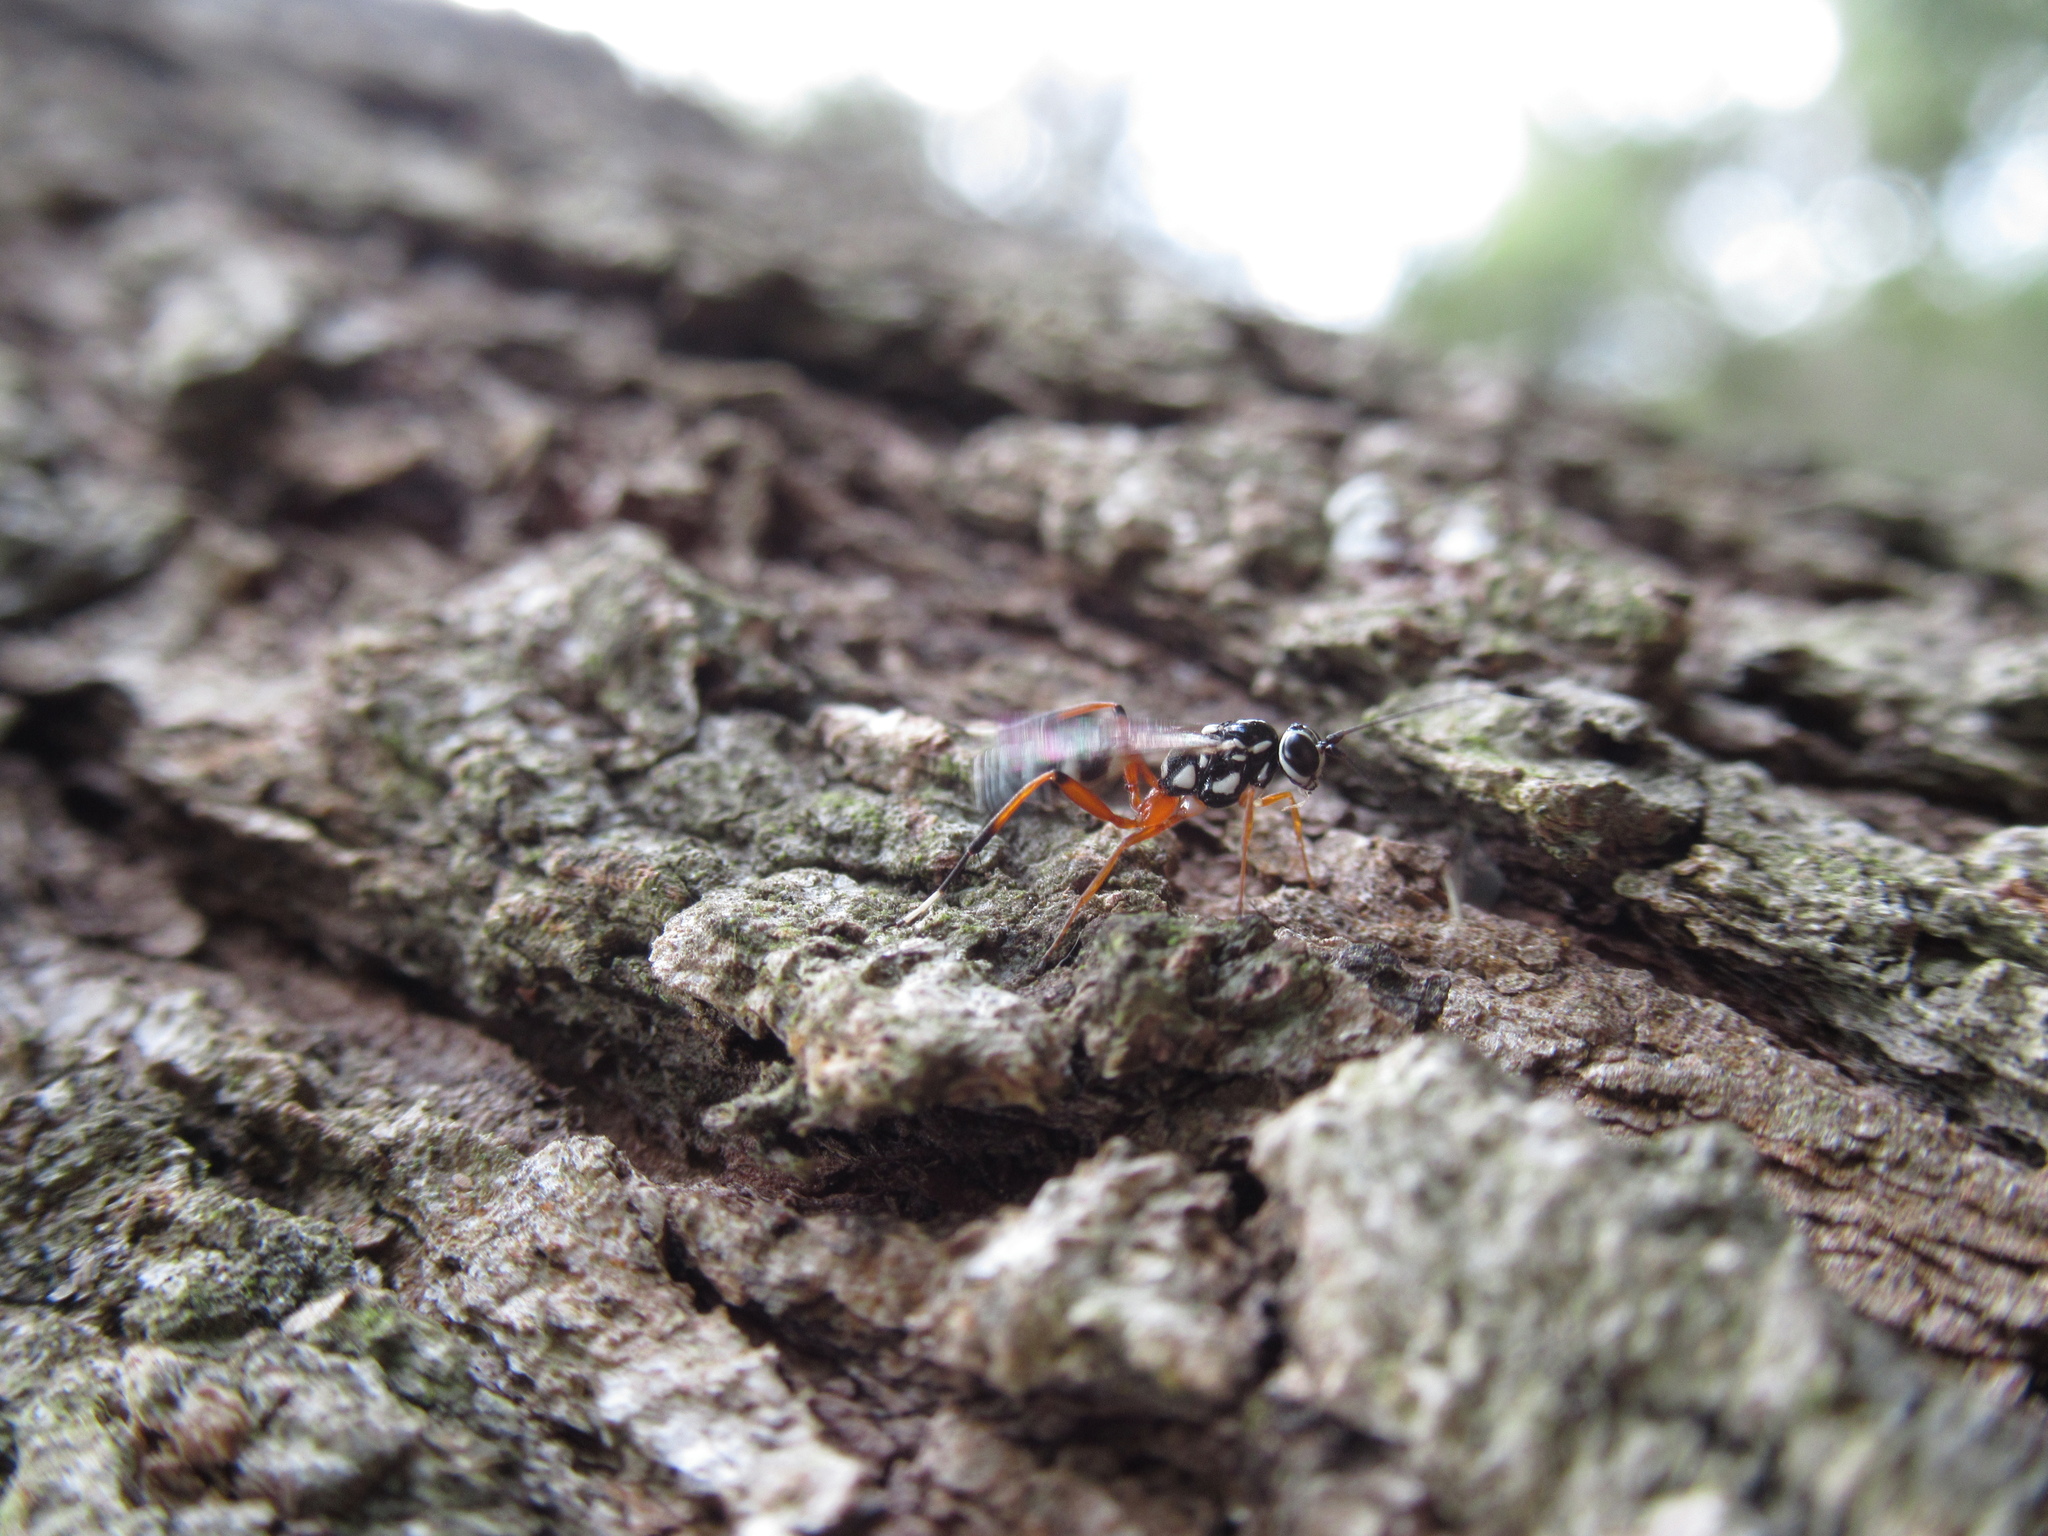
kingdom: Animalia
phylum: Arthropoda
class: Insecta
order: Hymenoptera
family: Ichneumonidae
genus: Glabridorsum
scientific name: Glabridorsum stokesii
